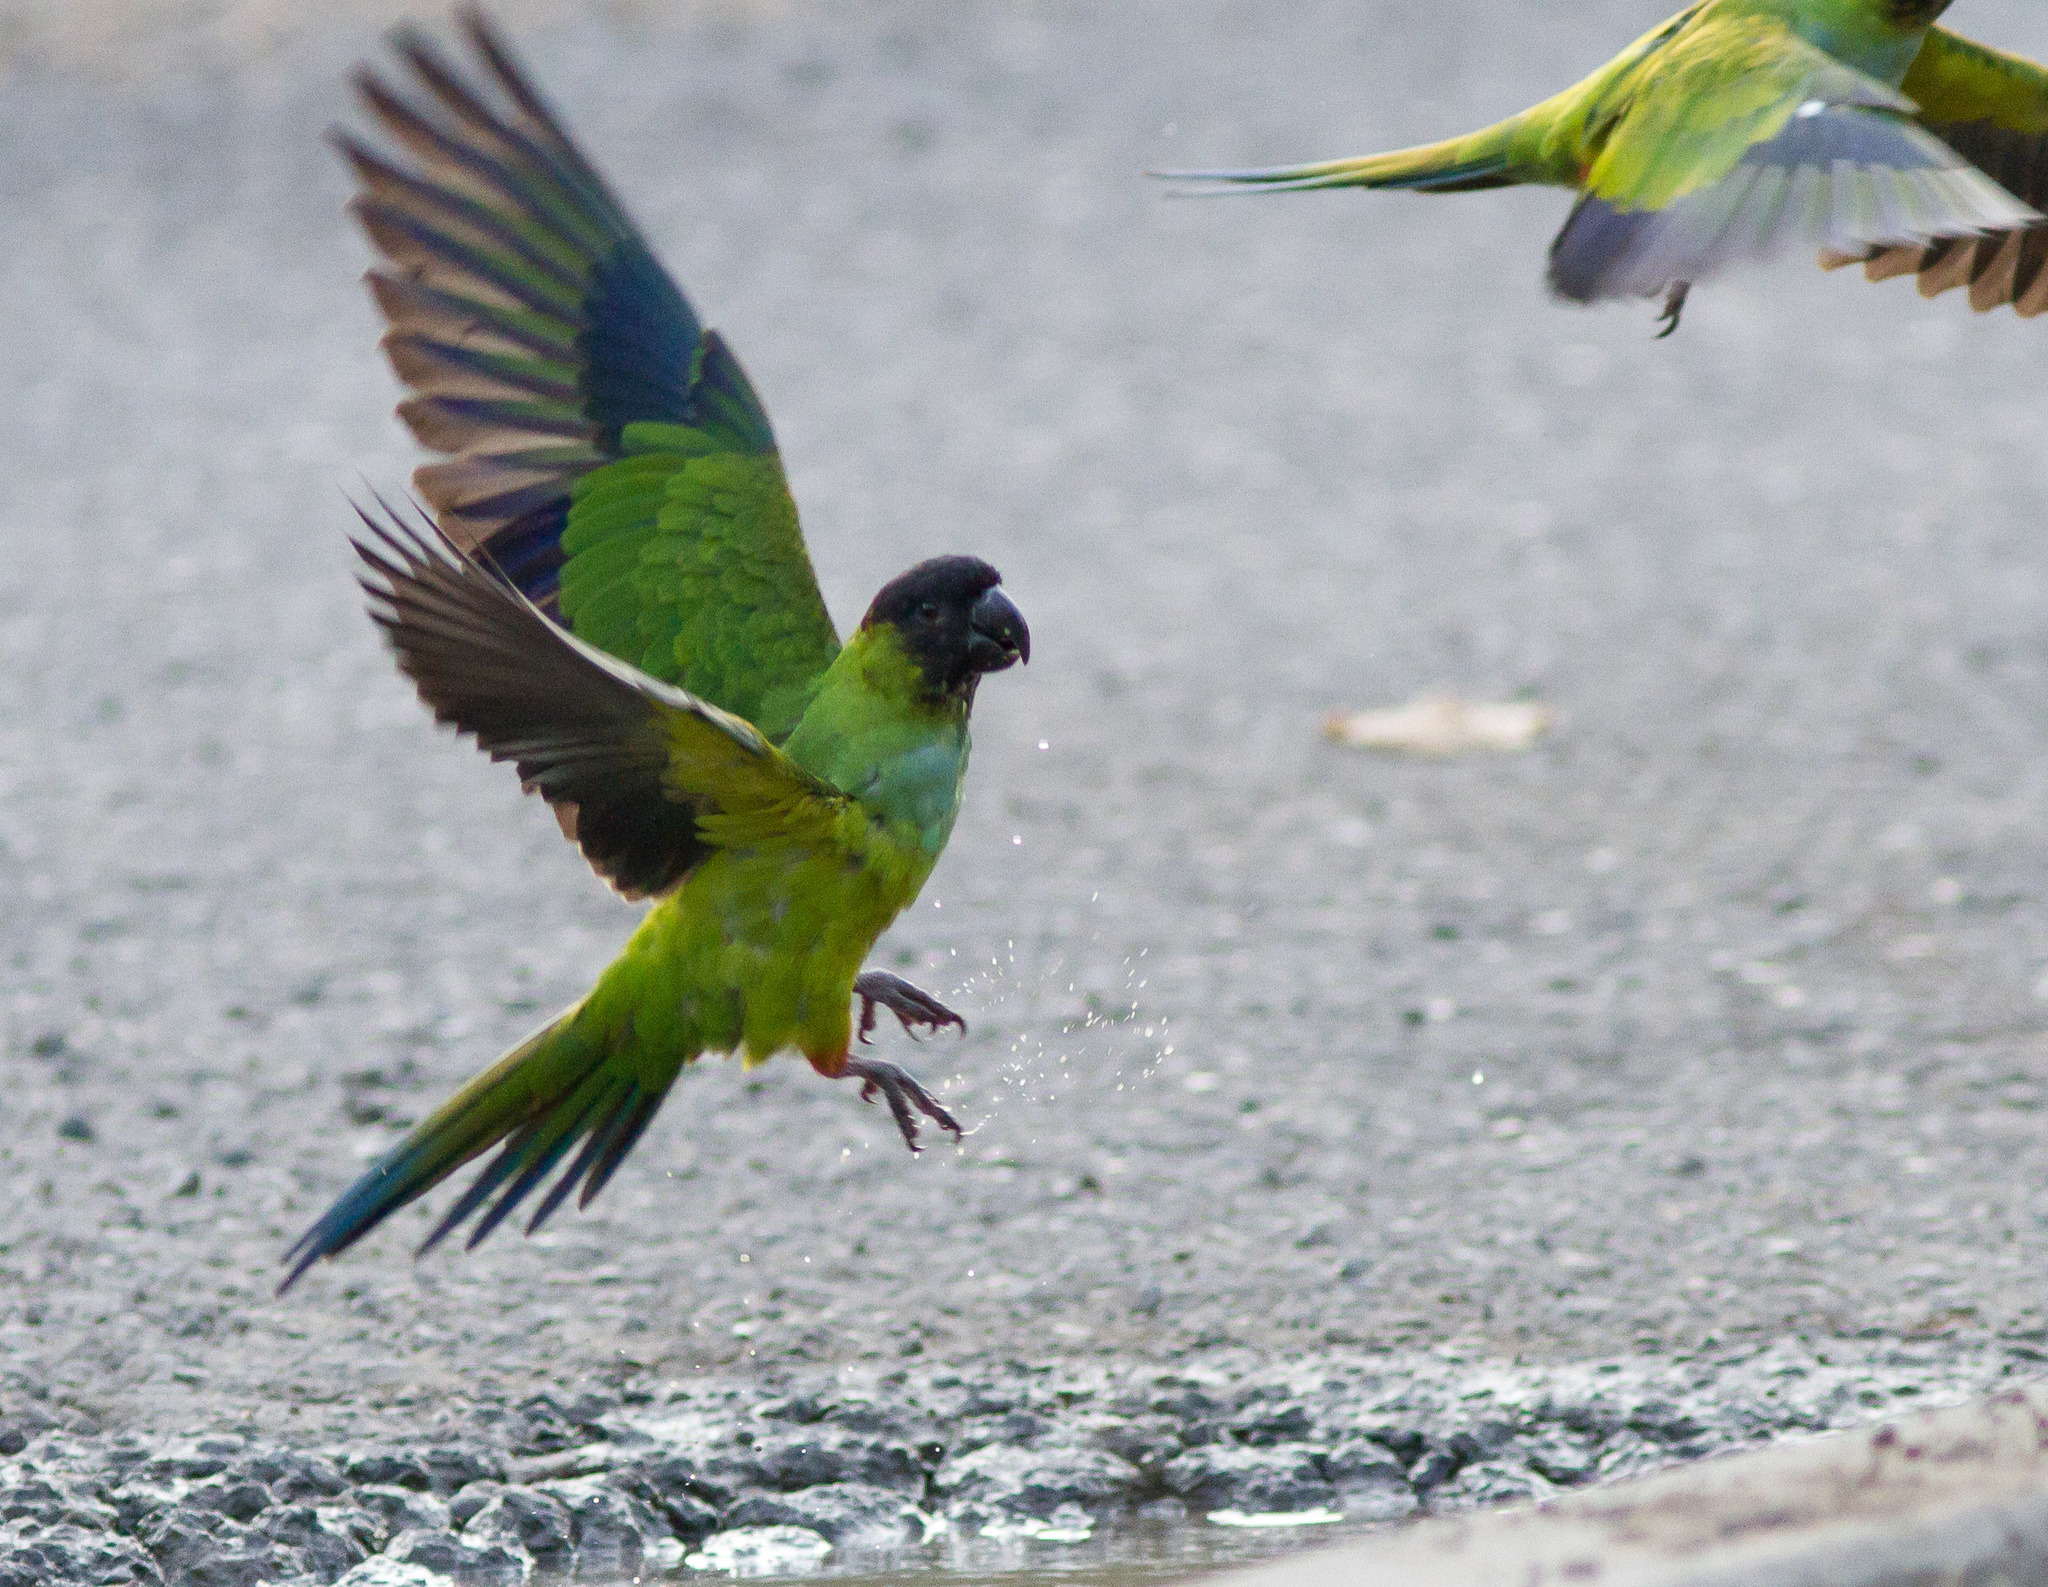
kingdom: Animalia
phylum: Chordata
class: Aves
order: Psittaciformes
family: Psittacidae
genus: Nandayus
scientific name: Nandayus nenday
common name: Nanday parakeet
